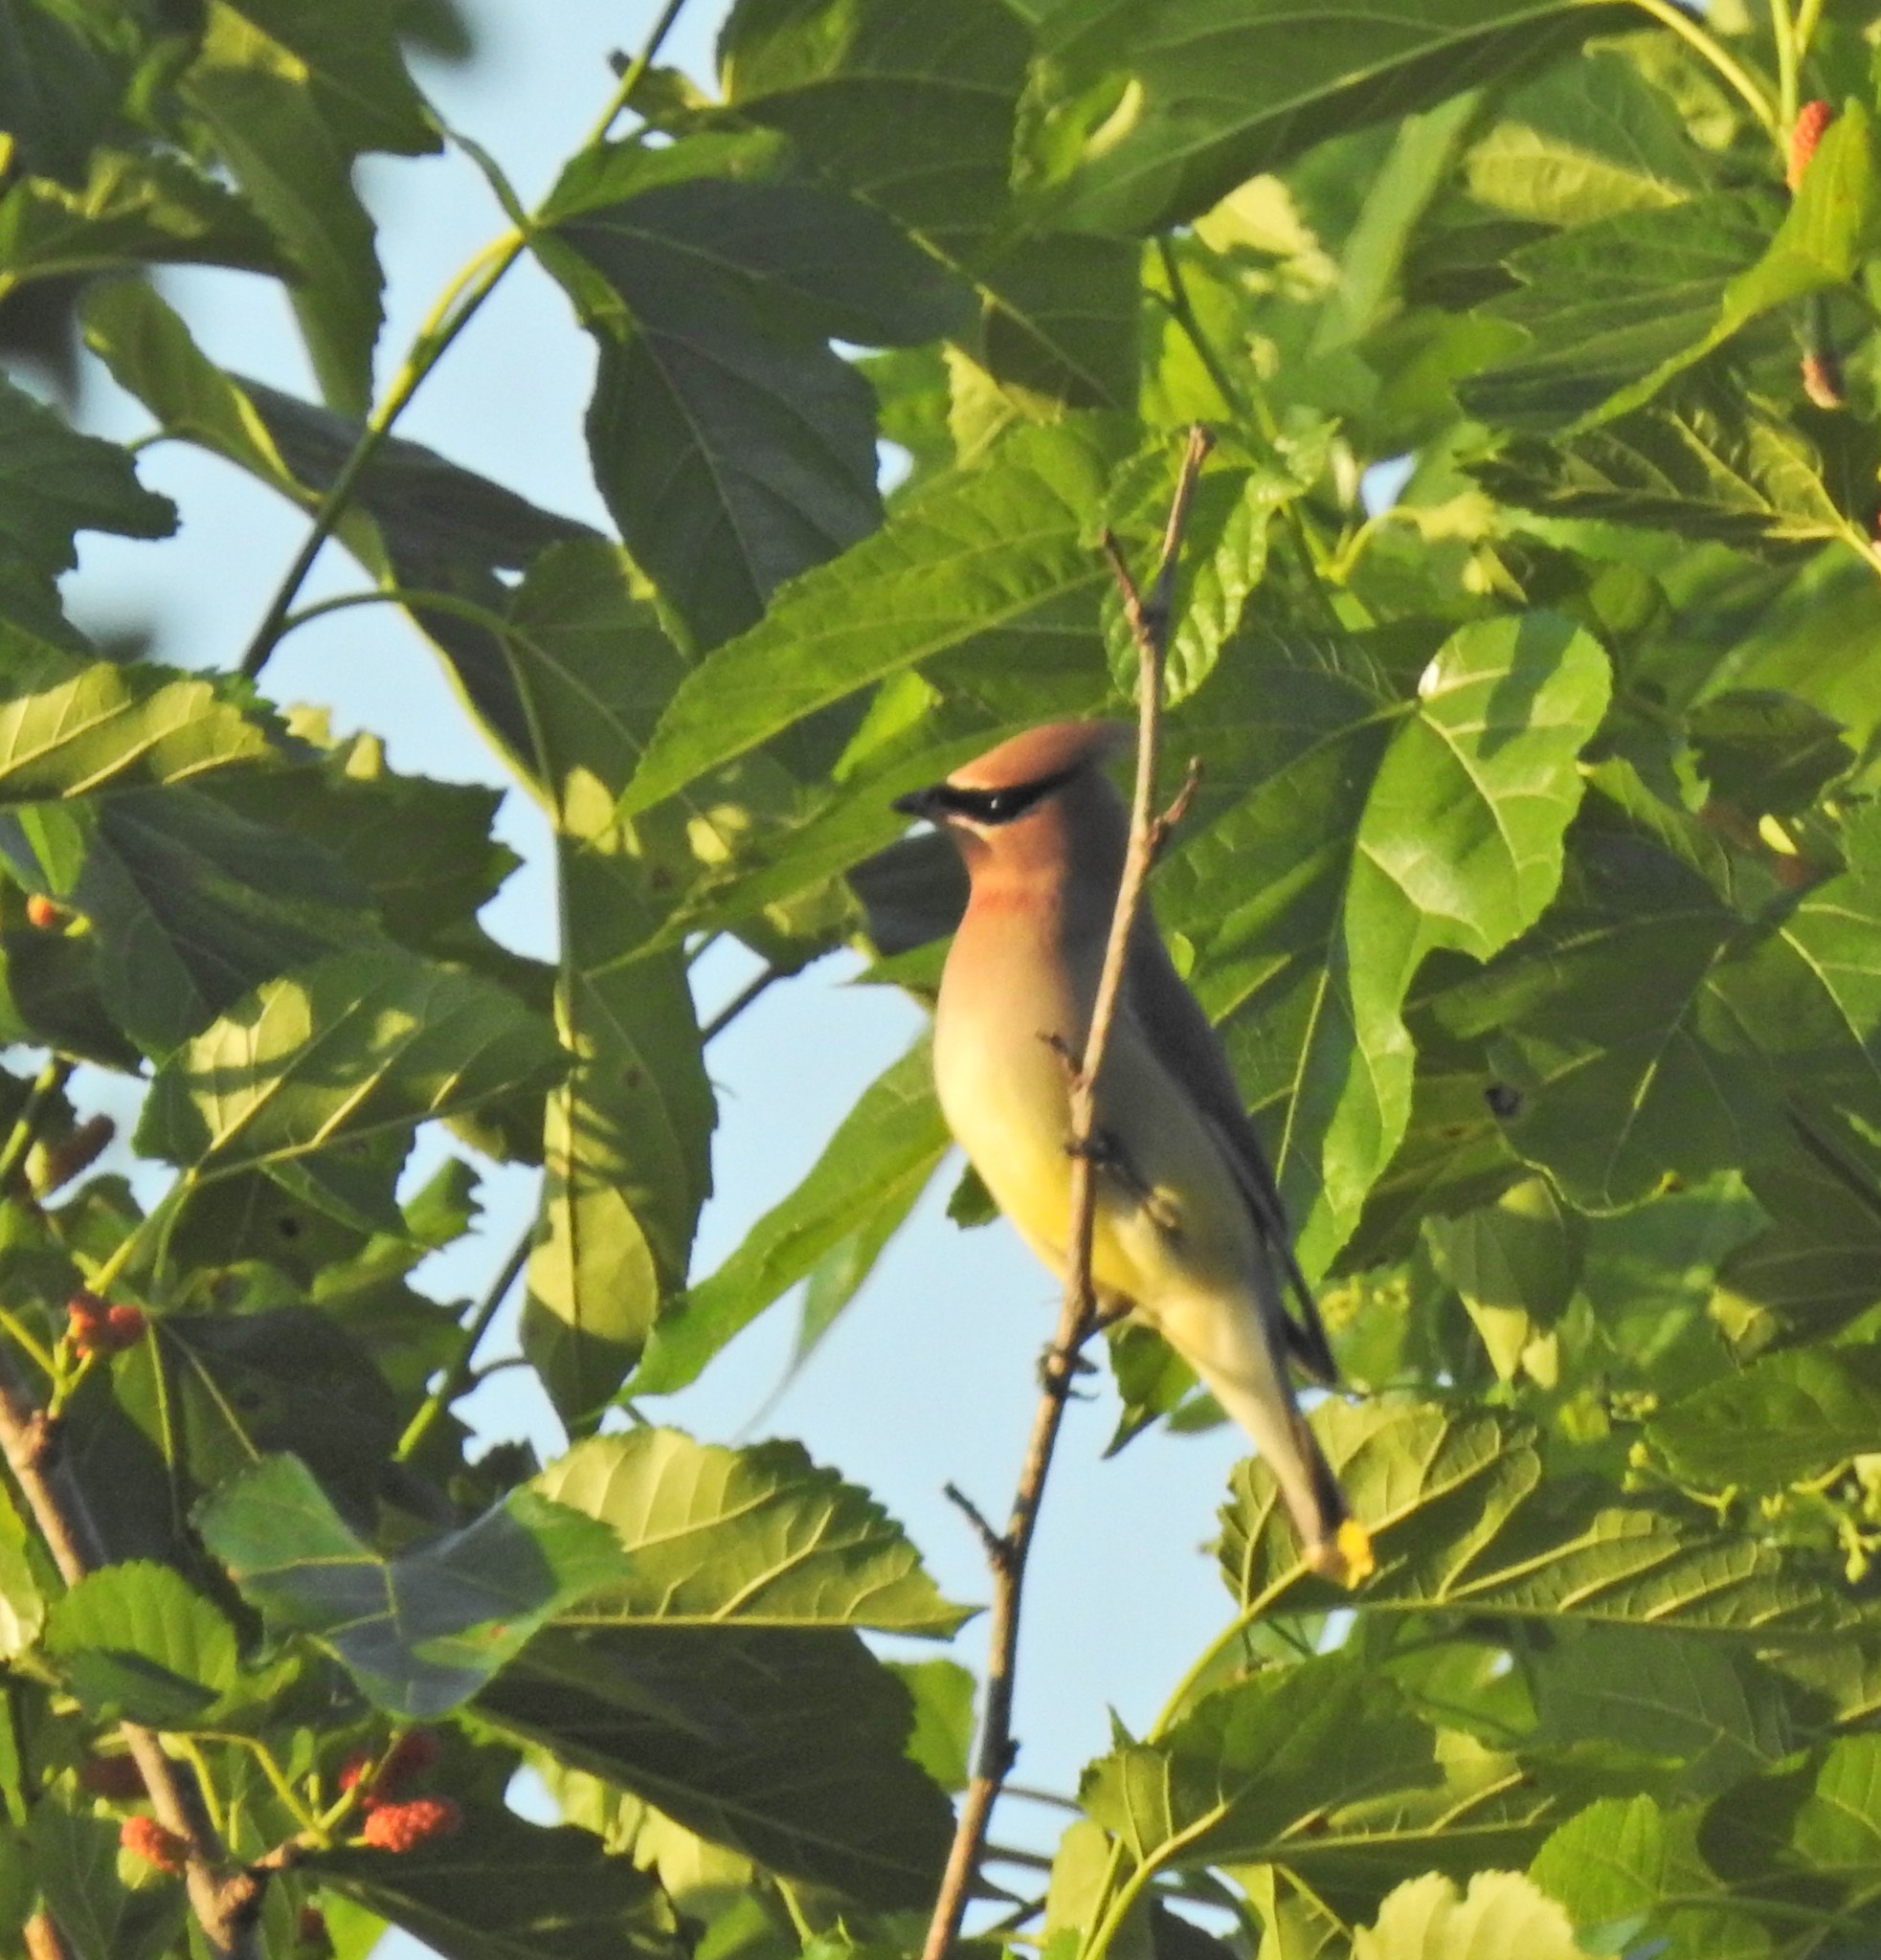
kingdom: Animalia
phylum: Chordata
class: Aves
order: Passeriformes
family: Bombycillidae
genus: Bombycilla
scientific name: Bombycilla cedrorum
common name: Cedar waxwing
